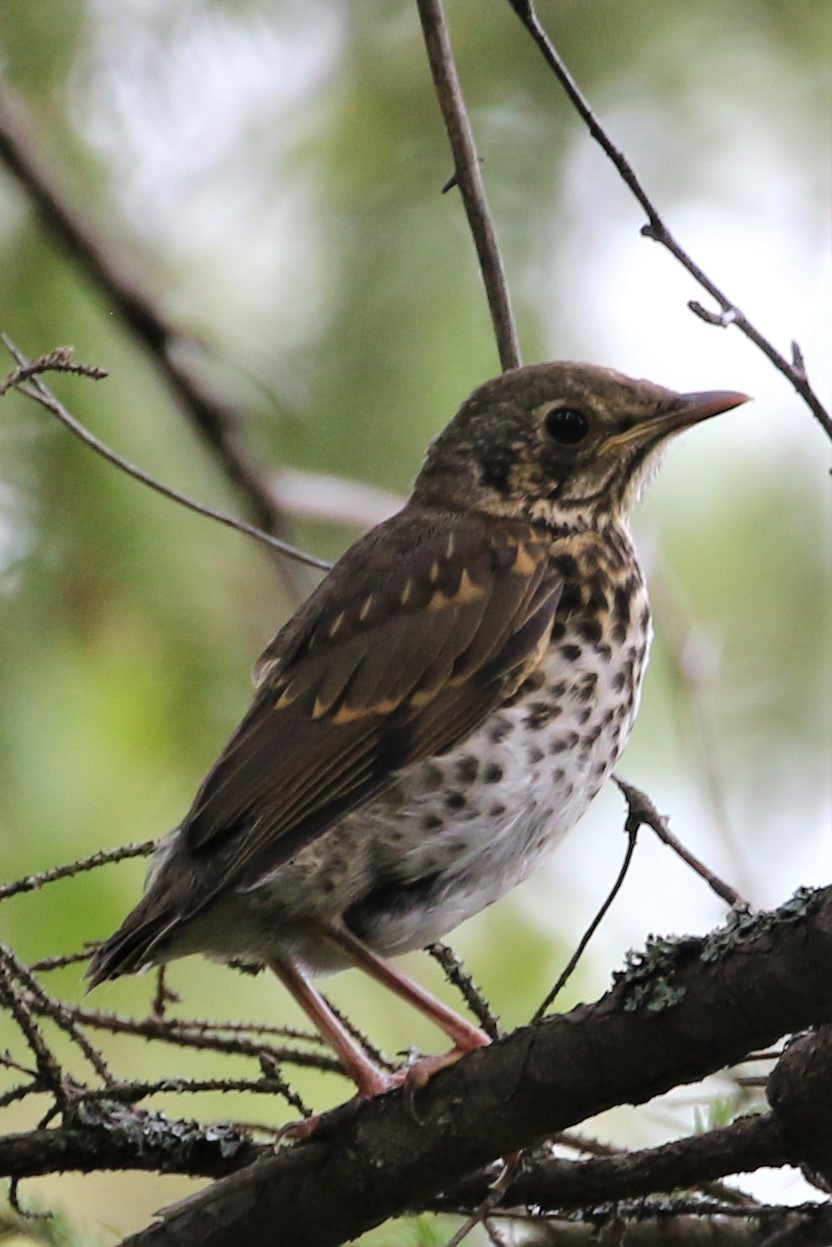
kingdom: Animalia
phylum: Chordata
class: Aves
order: Passeriformes
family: Turdidae
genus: Turdus
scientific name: Turdus philomelos
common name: Song thrush
